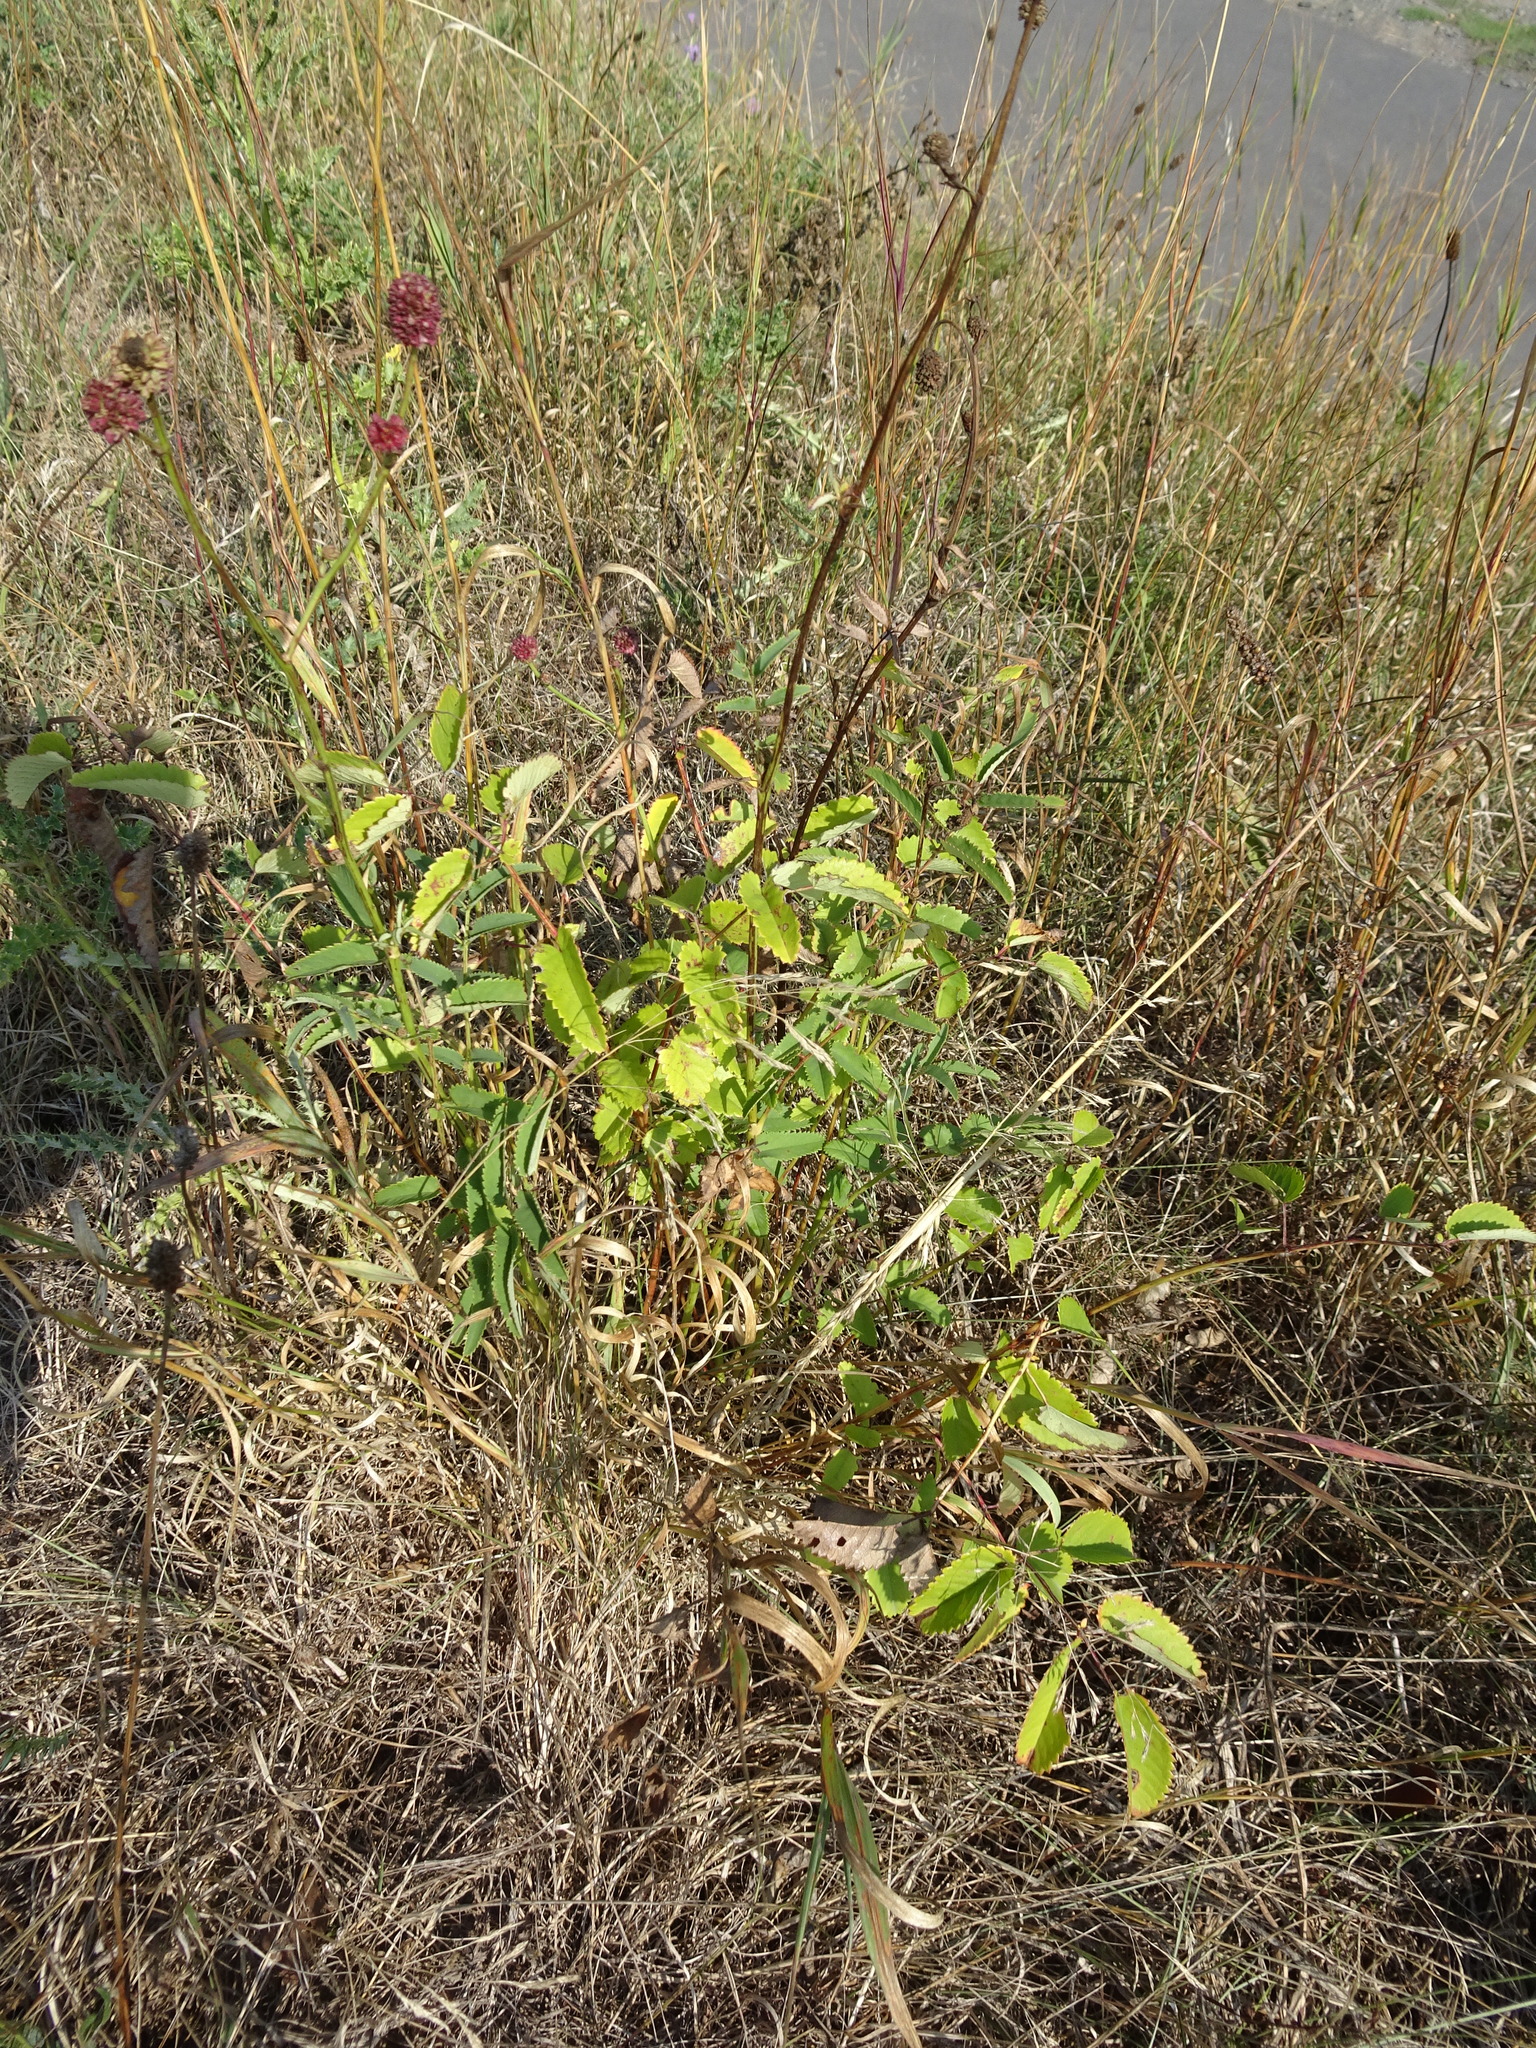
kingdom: Plantae
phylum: Tracheophyta
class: Magnoliopsida
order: Rosales
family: Rosaceae
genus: Sanguisorba
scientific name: Sanguisorba officinalis
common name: Great burnet
